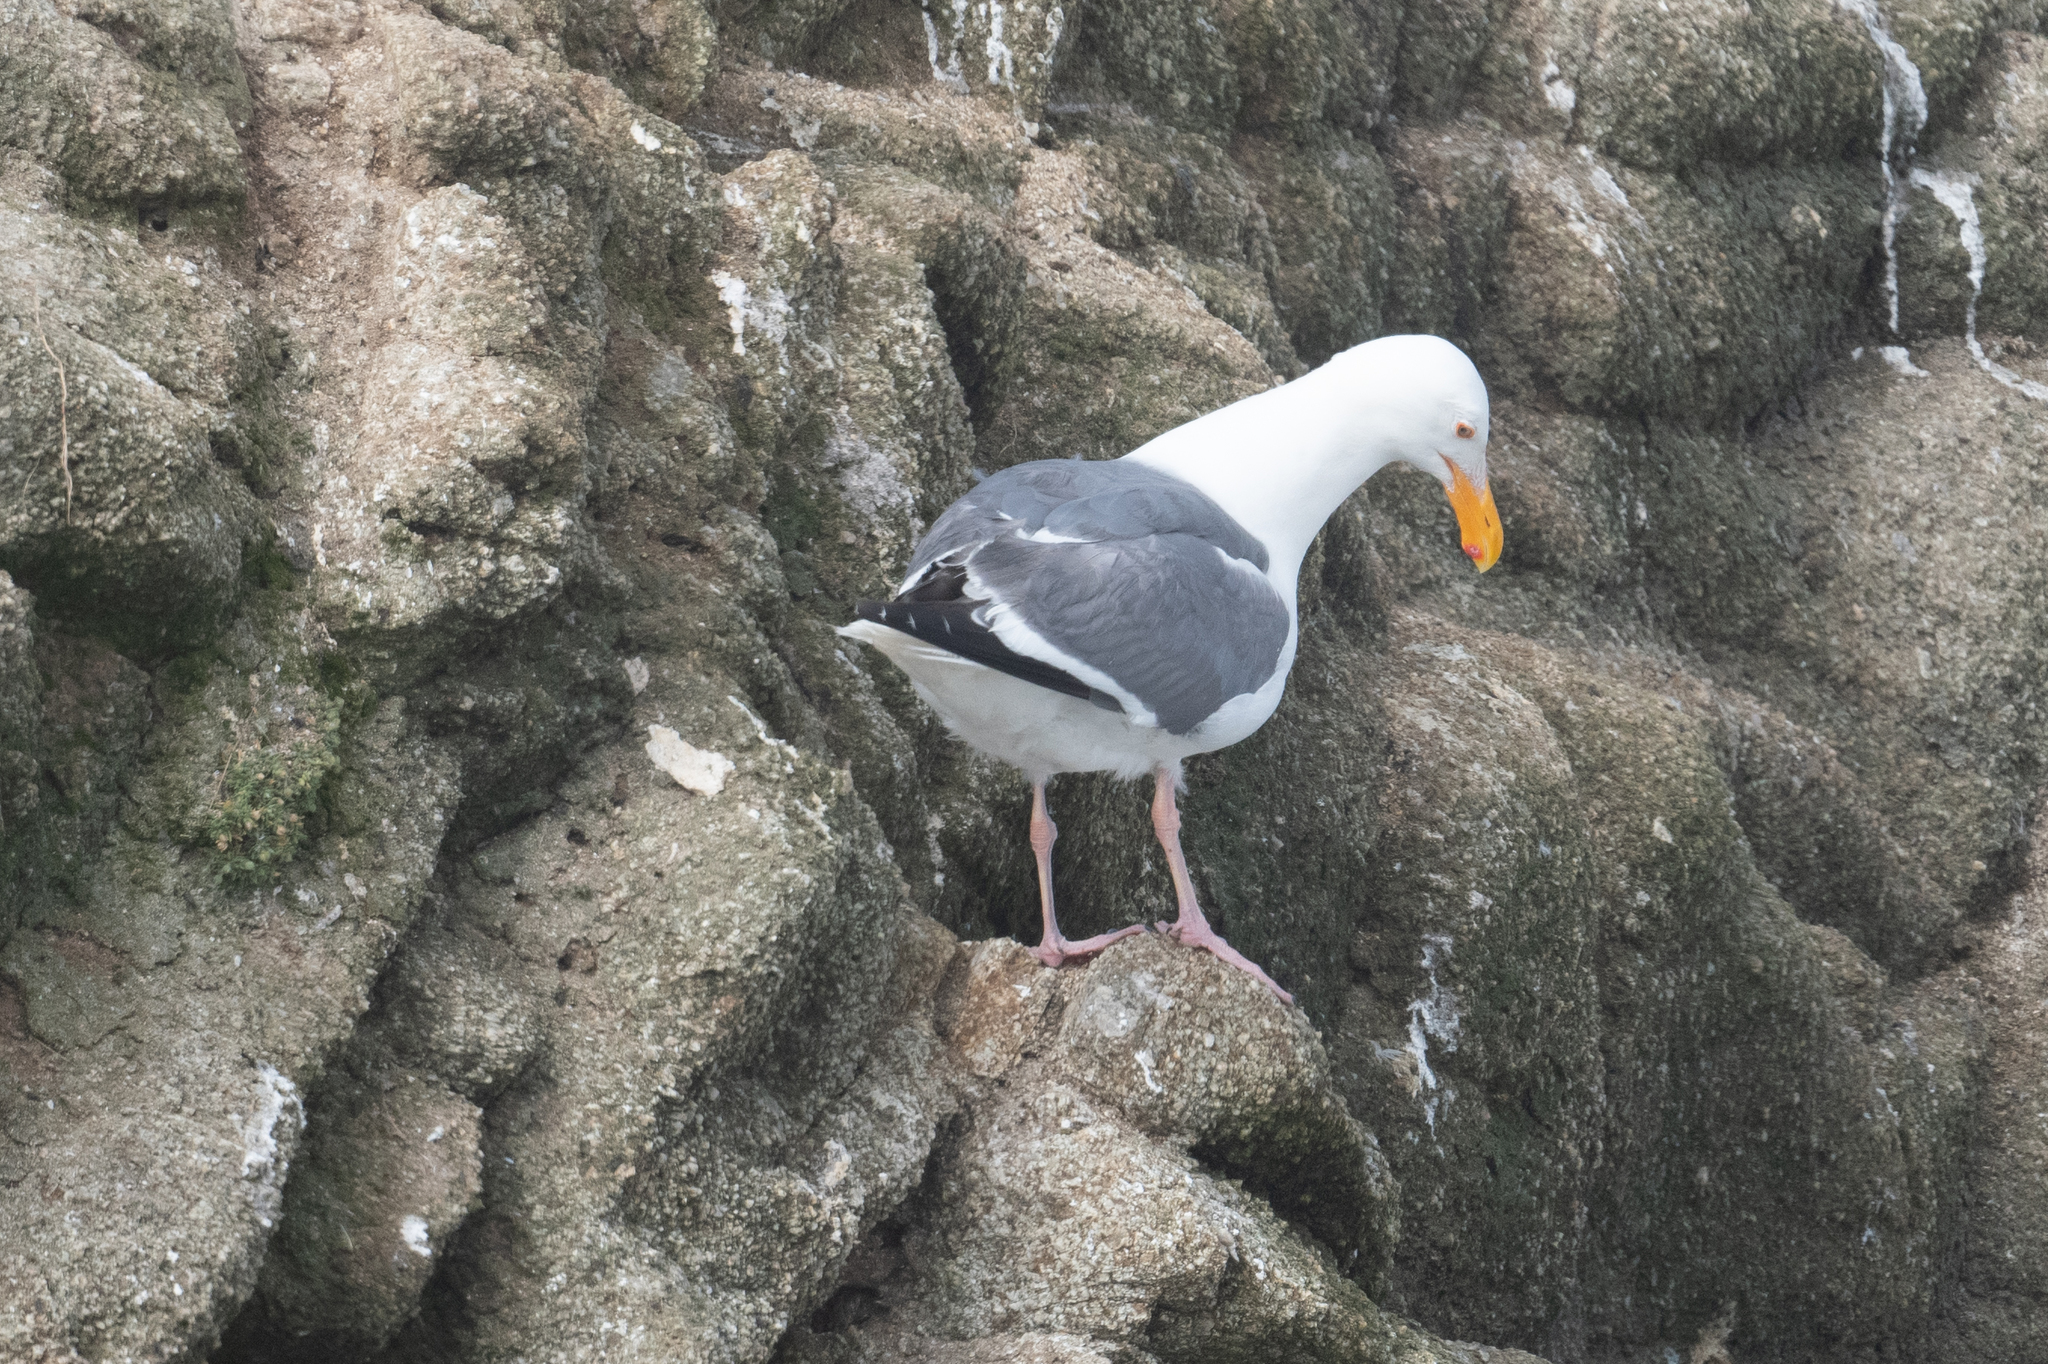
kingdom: Animalia
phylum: Chordata
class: Aves
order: Charadriiformes
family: Laridae
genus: Larus
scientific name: Larus occidentalis
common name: Western gull
